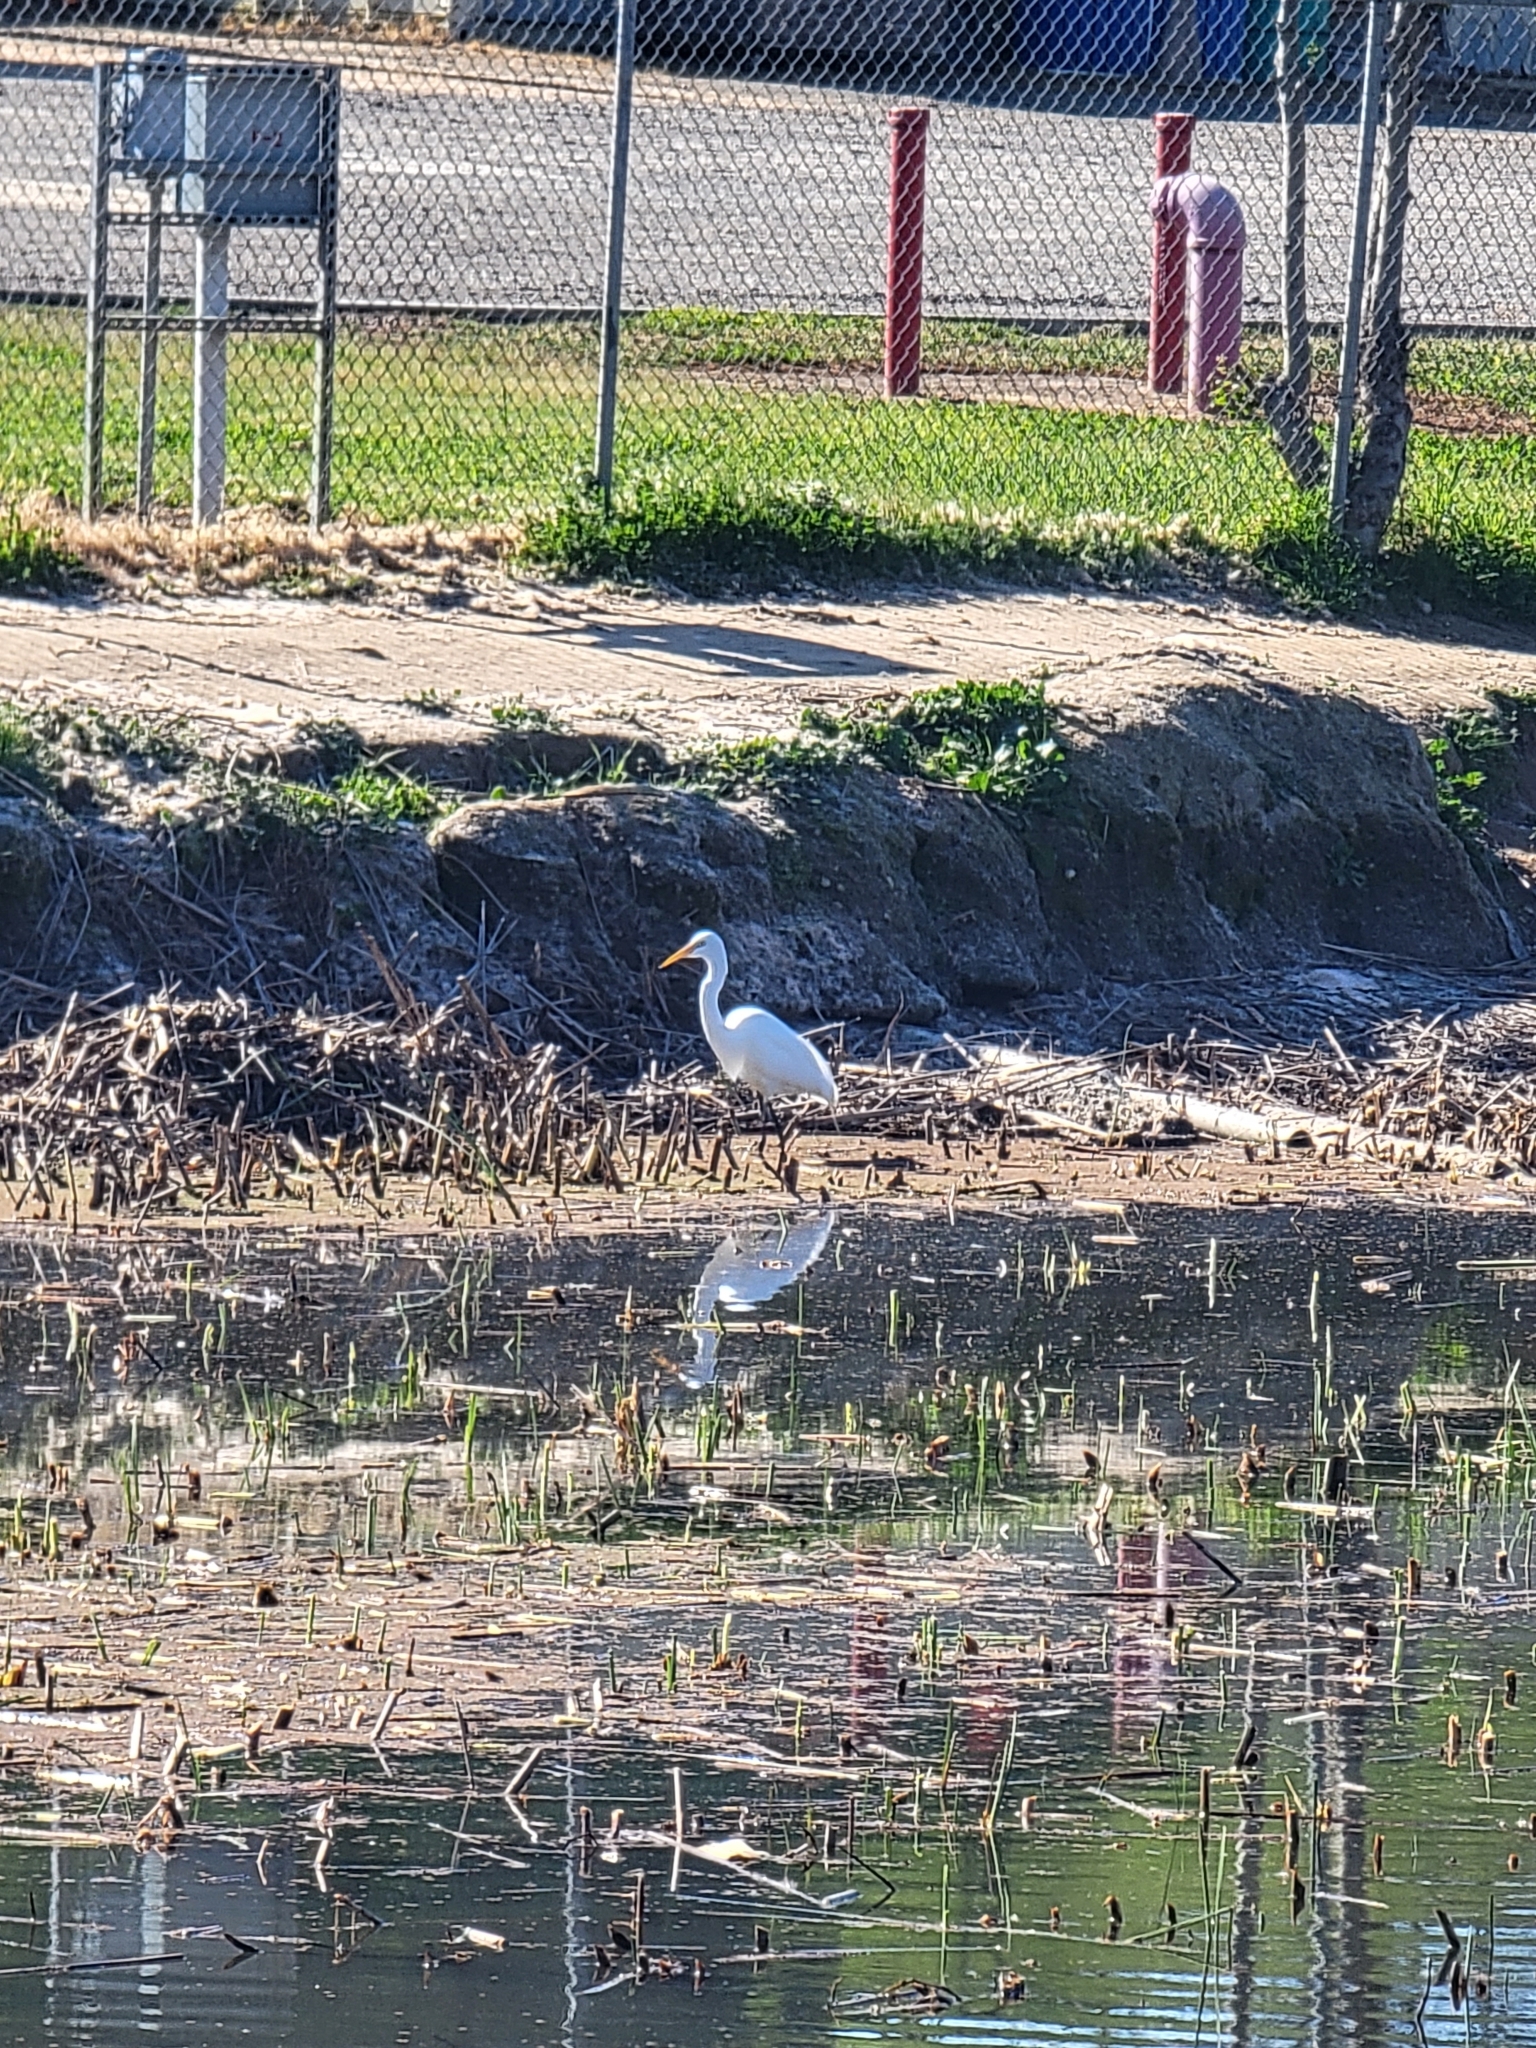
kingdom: Animalia
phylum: Chordata
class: Aves
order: Pelecaniformes
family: Ardeidae
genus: Ardea
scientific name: Ardea alba
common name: Great egret
